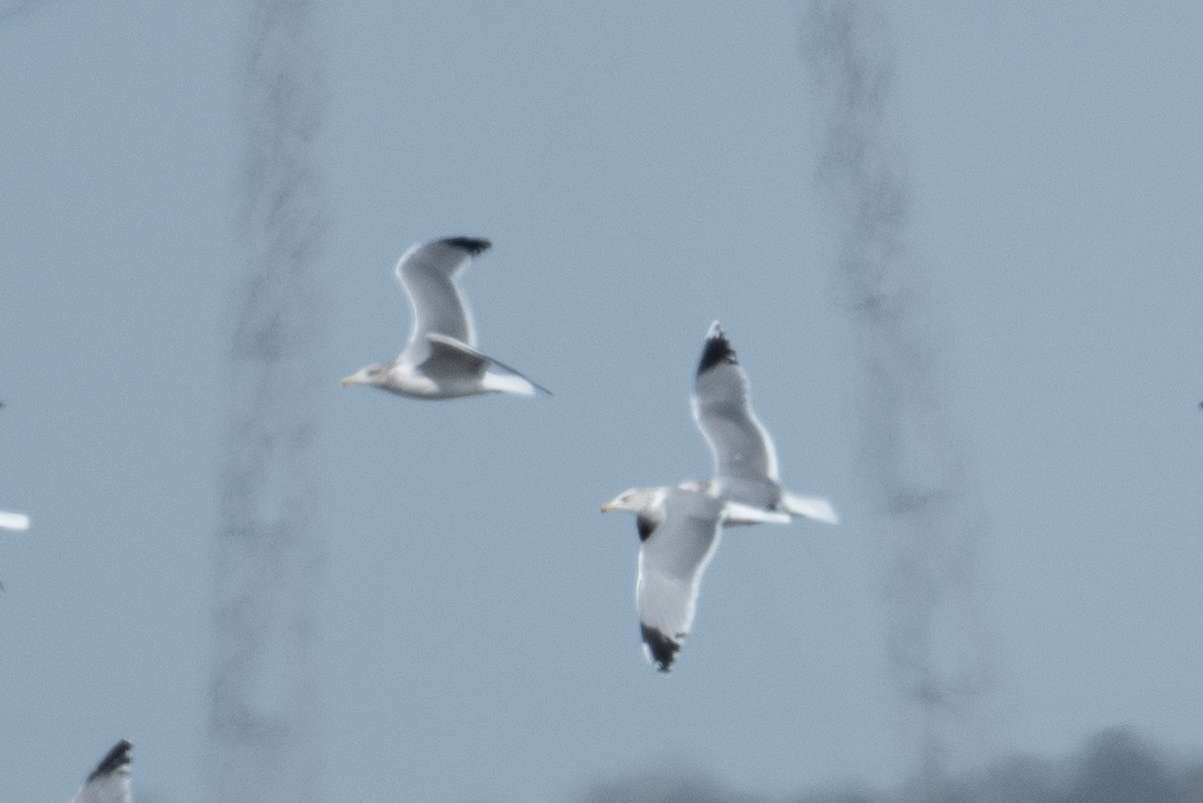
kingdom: Animalia
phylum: Chordata
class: Aves
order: Charadriiformes
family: Laridae
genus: Larus
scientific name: Larus californicus
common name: California gull
